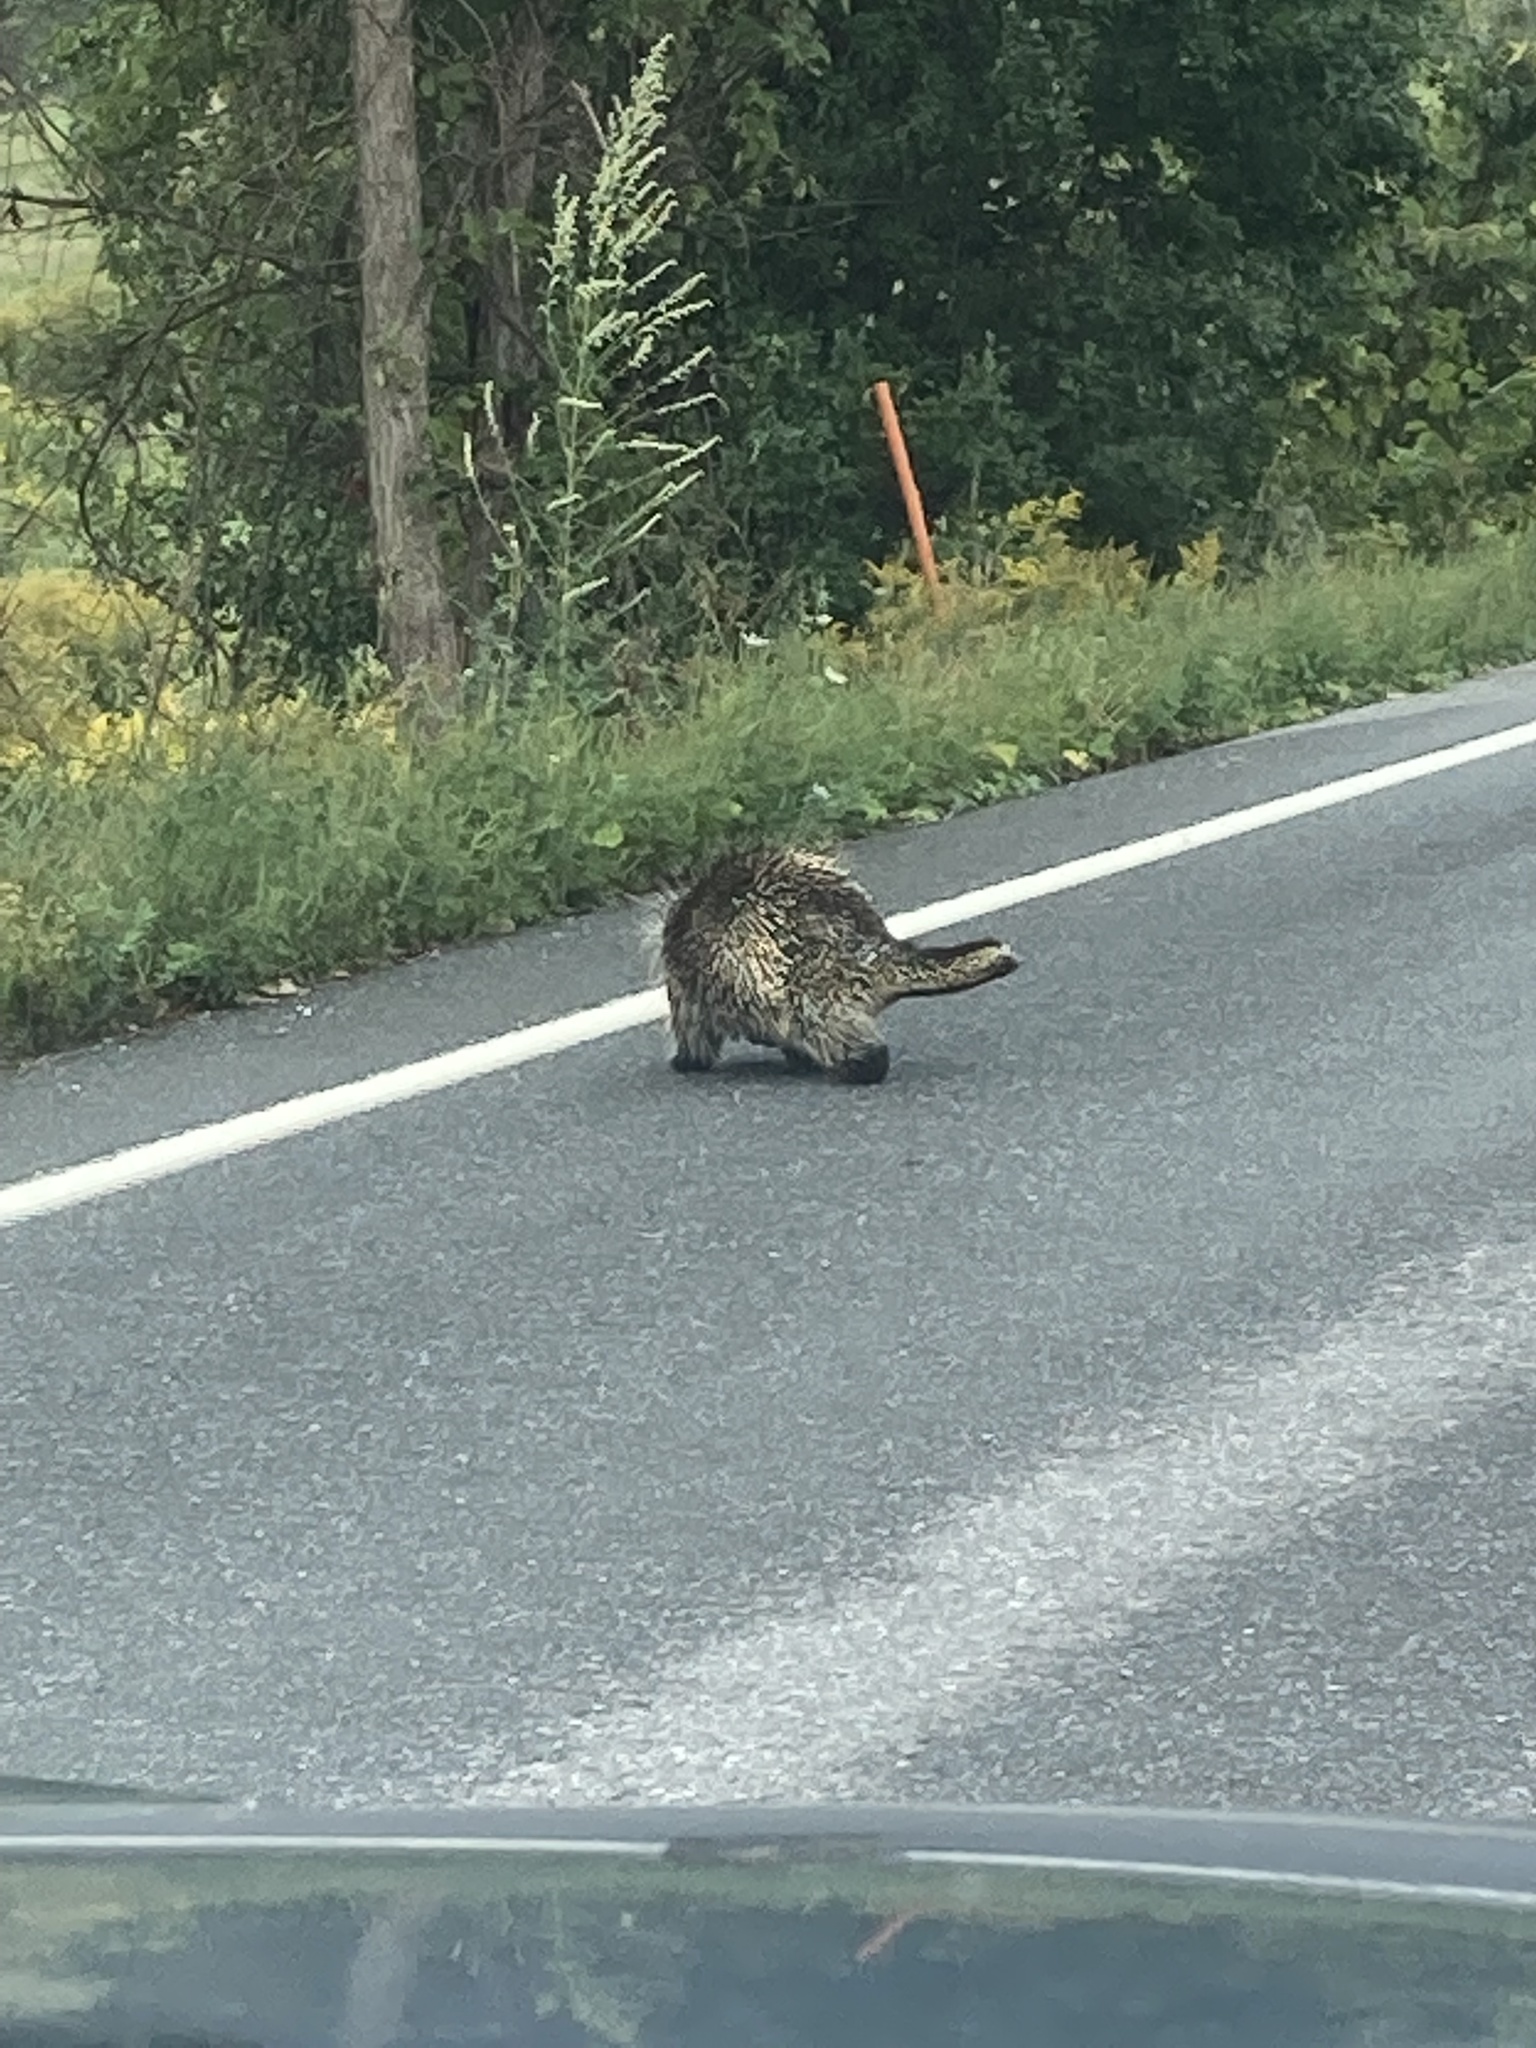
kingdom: Animalia
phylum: Chordata
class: Mammalia
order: Rodentia
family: Erethizontidae
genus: Erethizon
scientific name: Erethizon dorsatus
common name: North american porcupine
